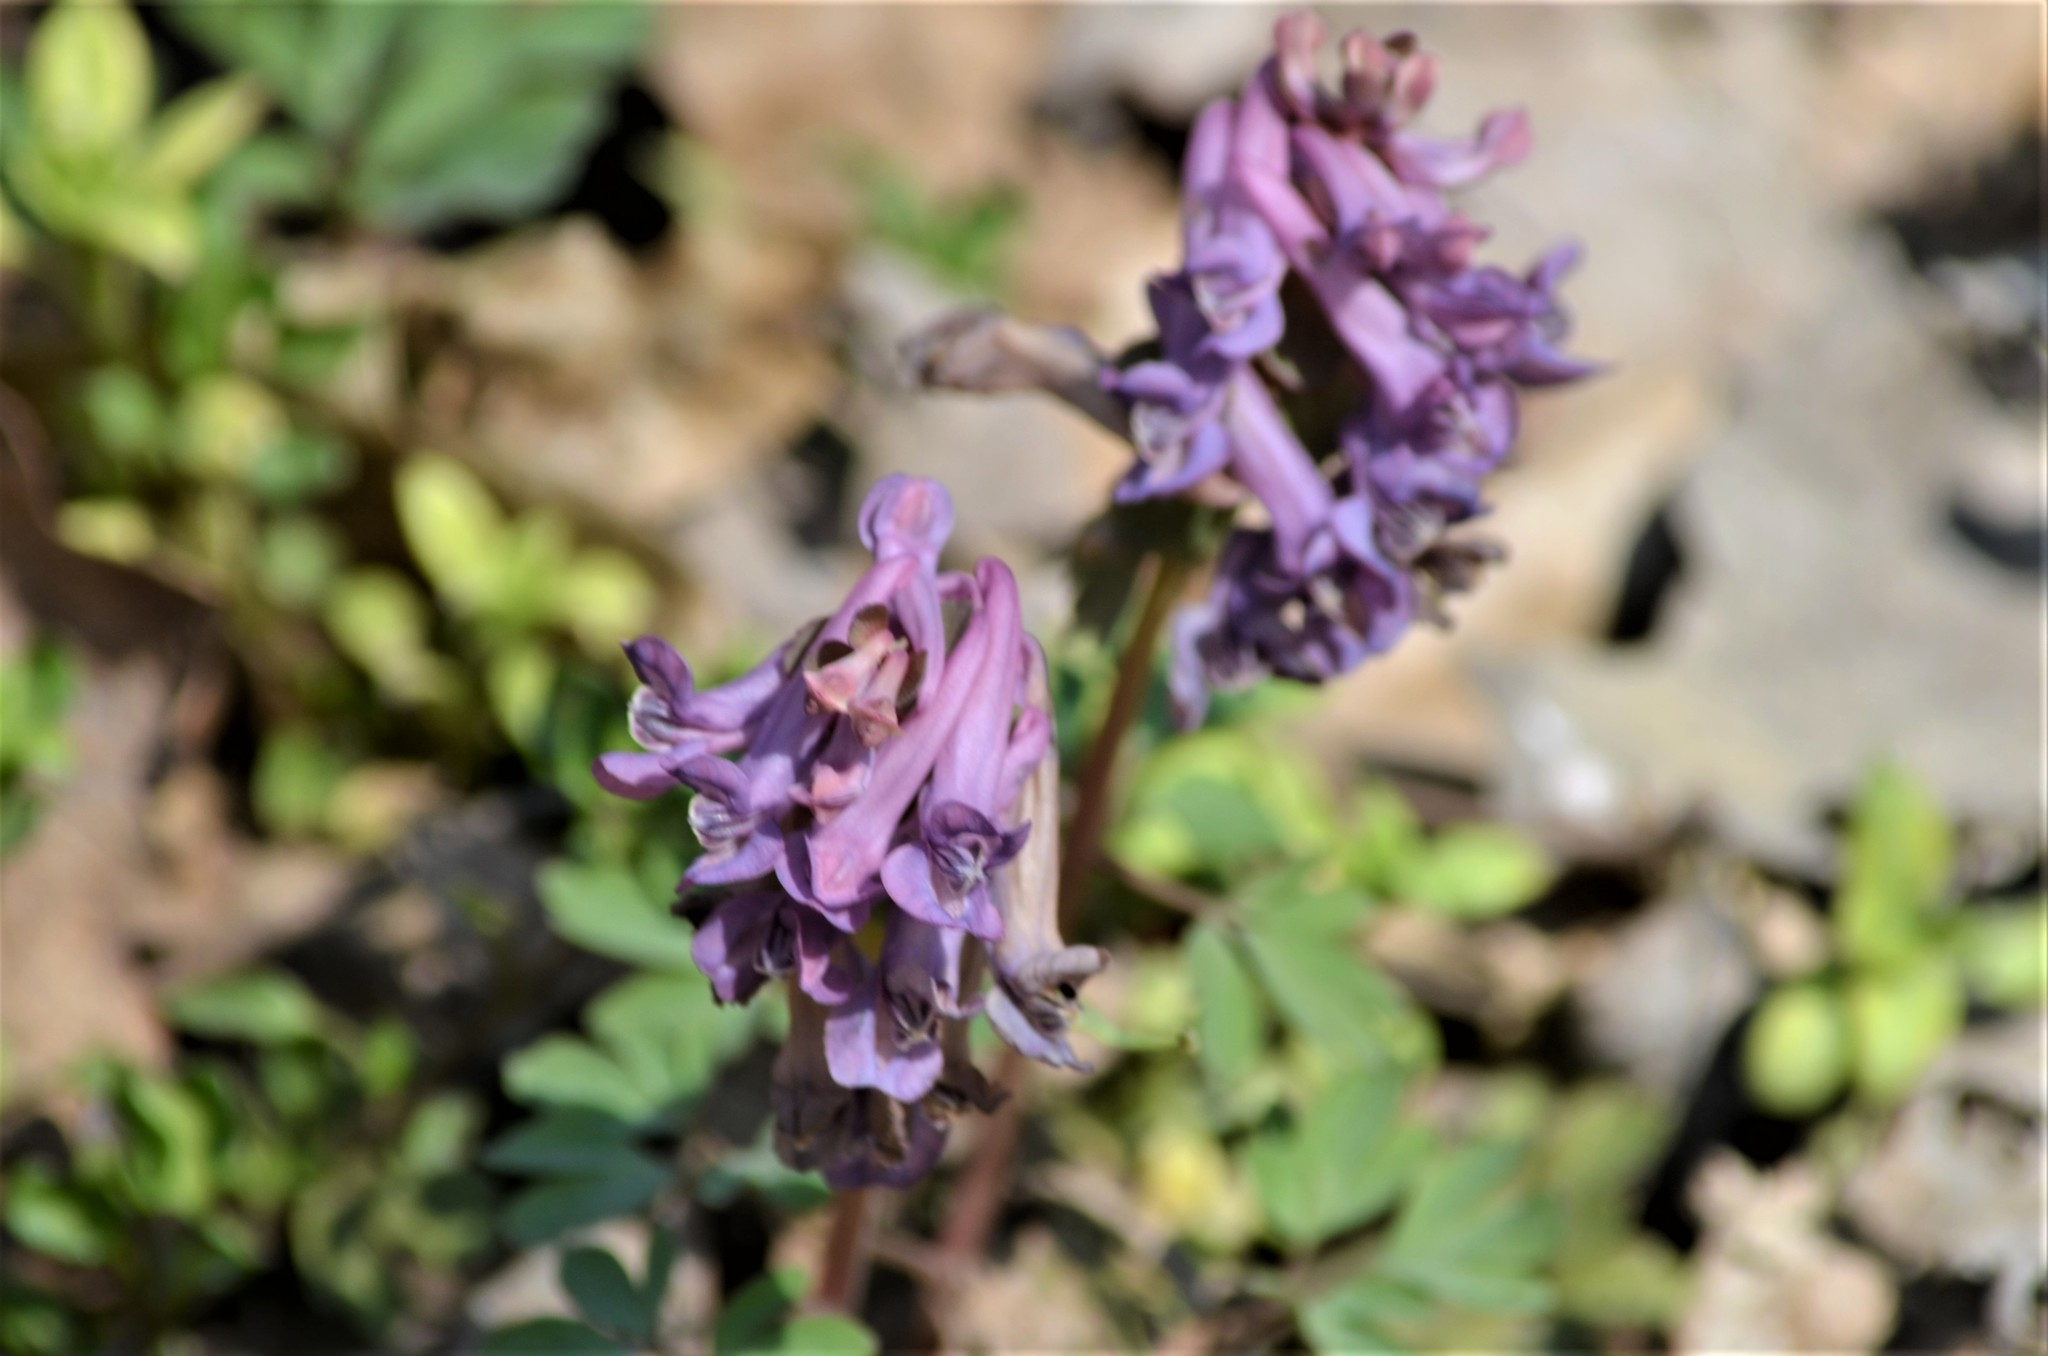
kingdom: Plantae
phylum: Tracheophyta
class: Magnoliopsida
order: Ranunculales
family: Papaveraceae
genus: Corydalis
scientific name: Corydalis solida
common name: Bird-in-a-bush
